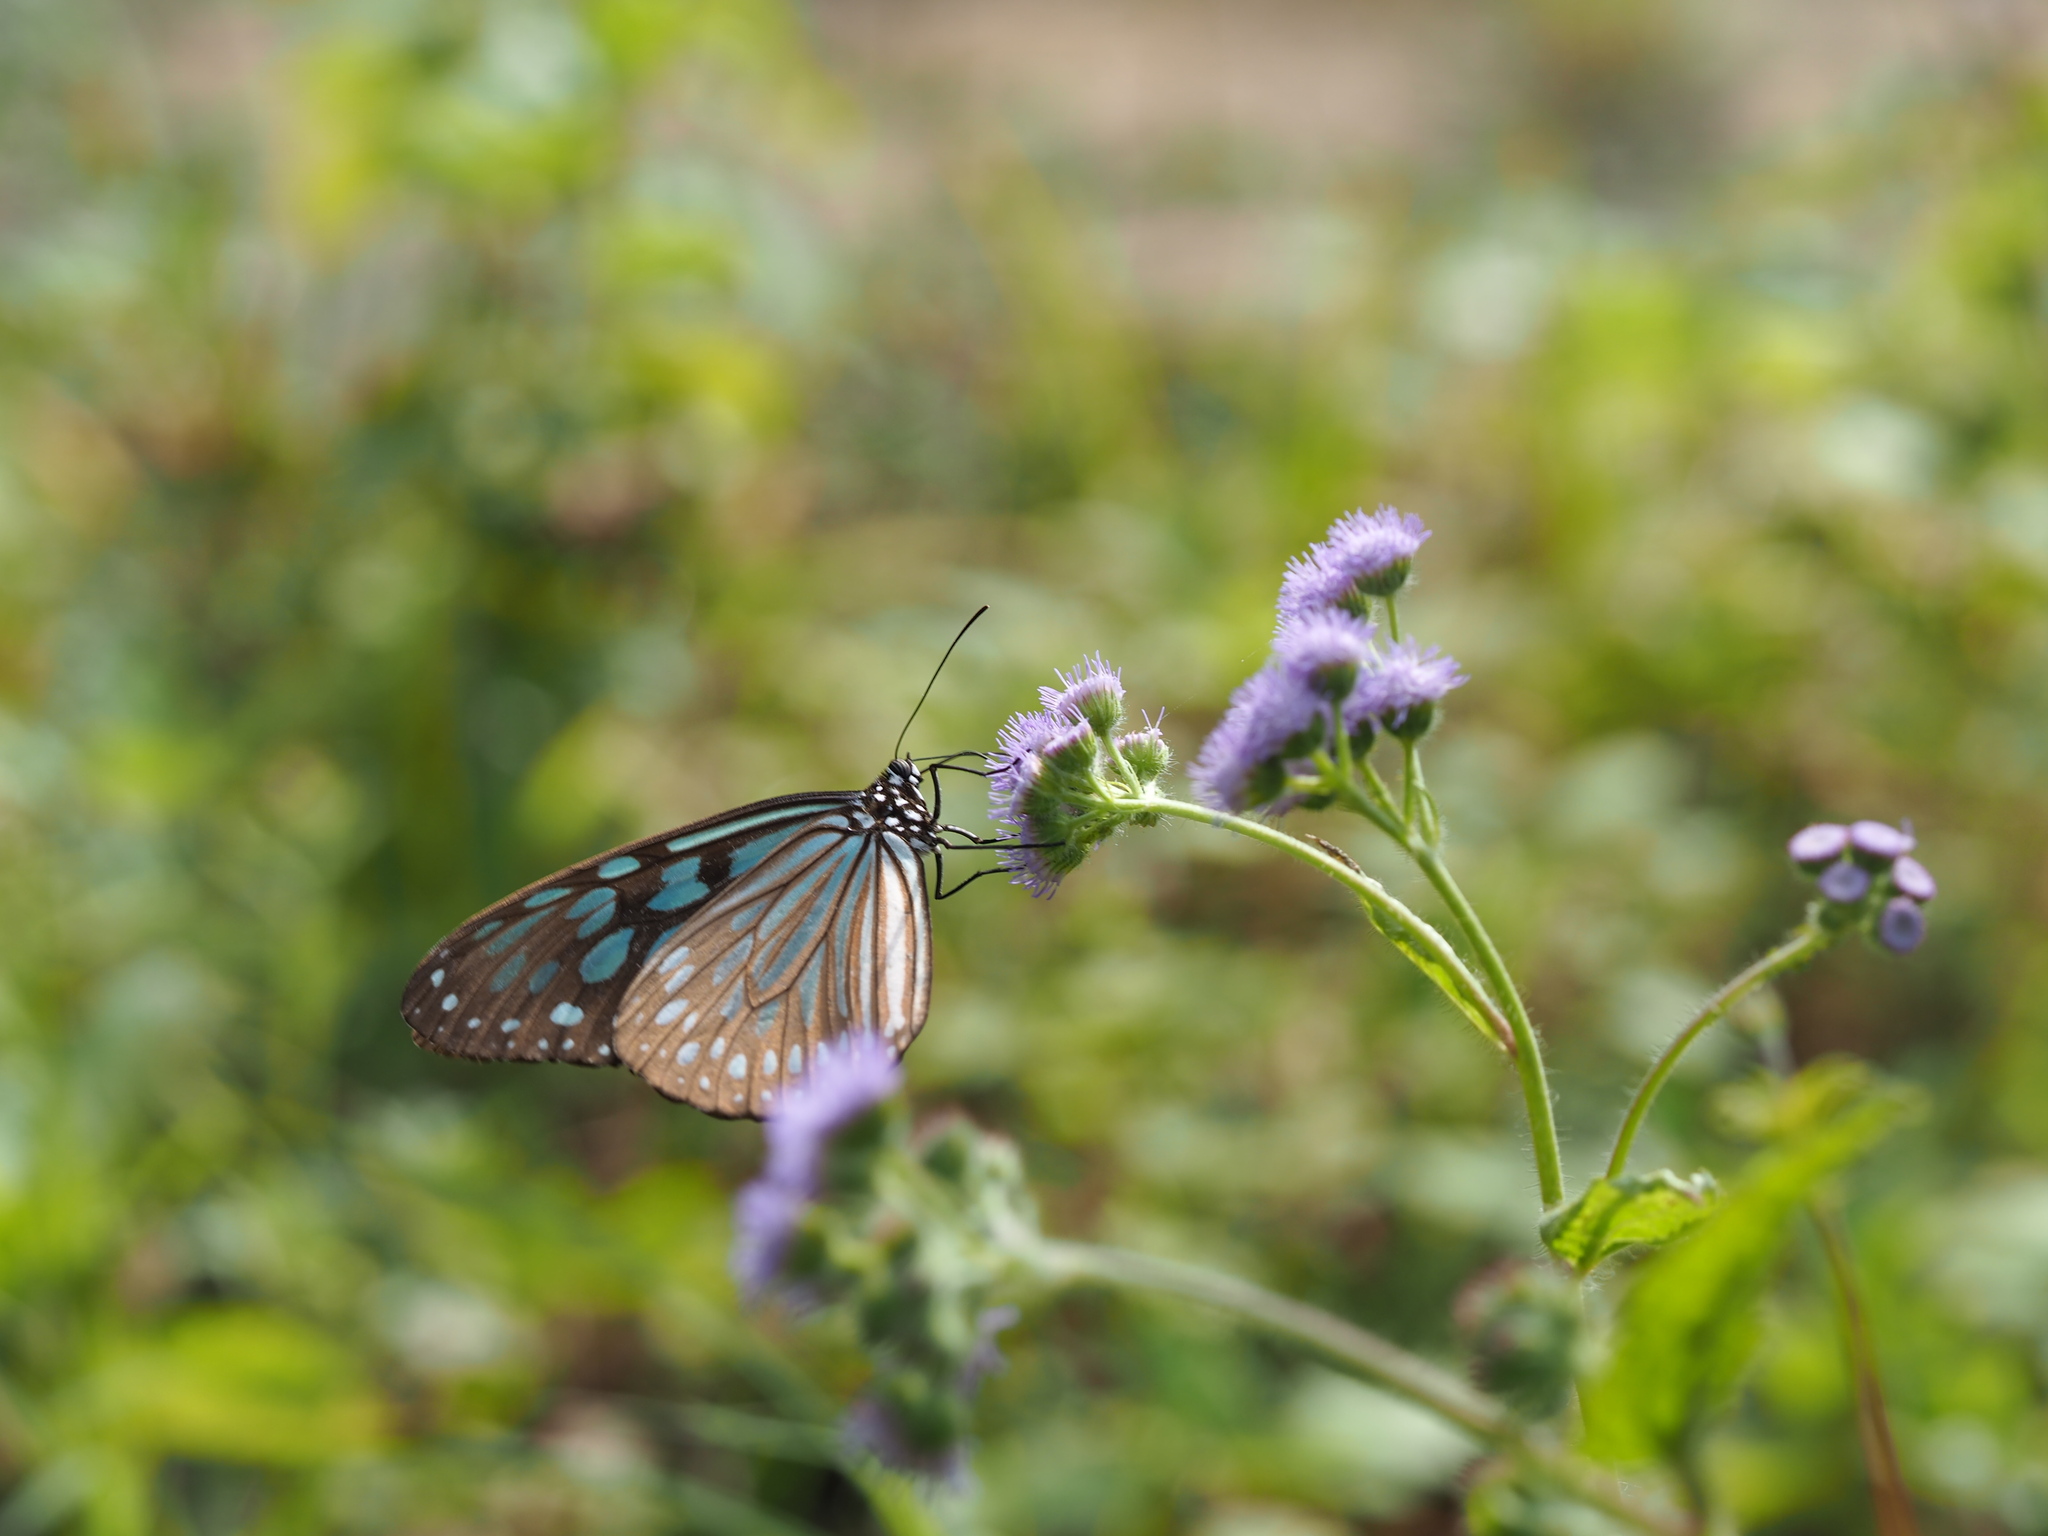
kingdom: Animalia
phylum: Arthropoda
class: Insecta
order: Lepidoptera
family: Nymphalidae
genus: Ideopsis
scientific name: Ideopsis similis
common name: Ceylon blue glassy tiger
